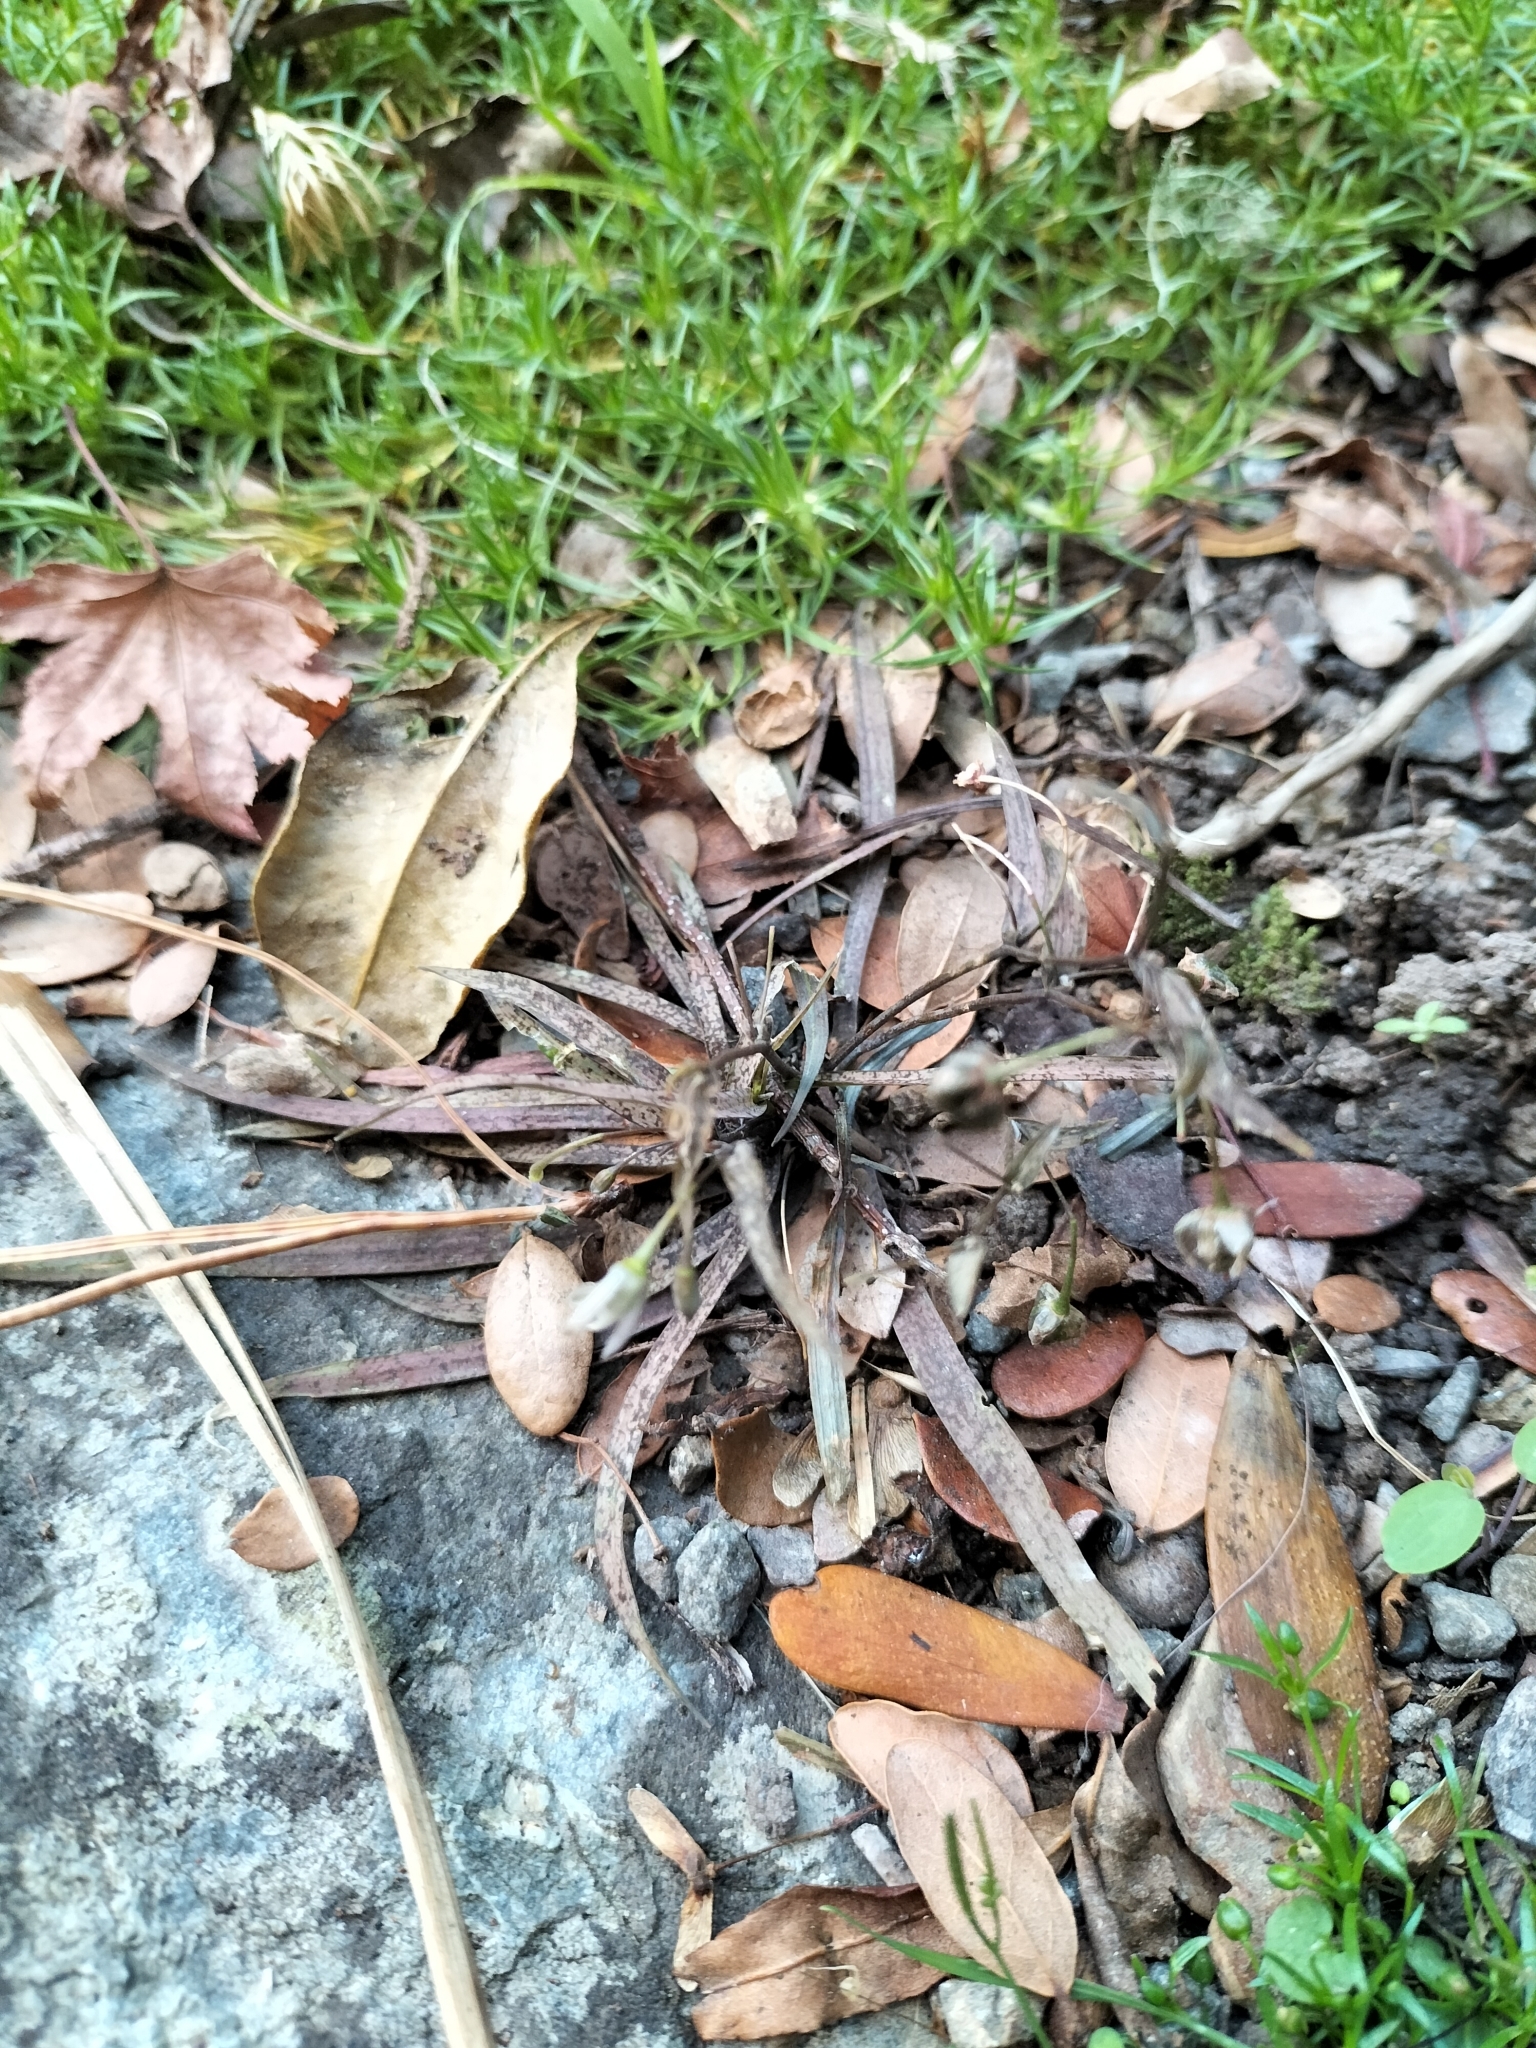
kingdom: Plantae
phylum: Tracheophyta
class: Liliopsida
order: Asparagales
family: Asparagaceae
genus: Arthropodium
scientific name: Arthropodium candidum
